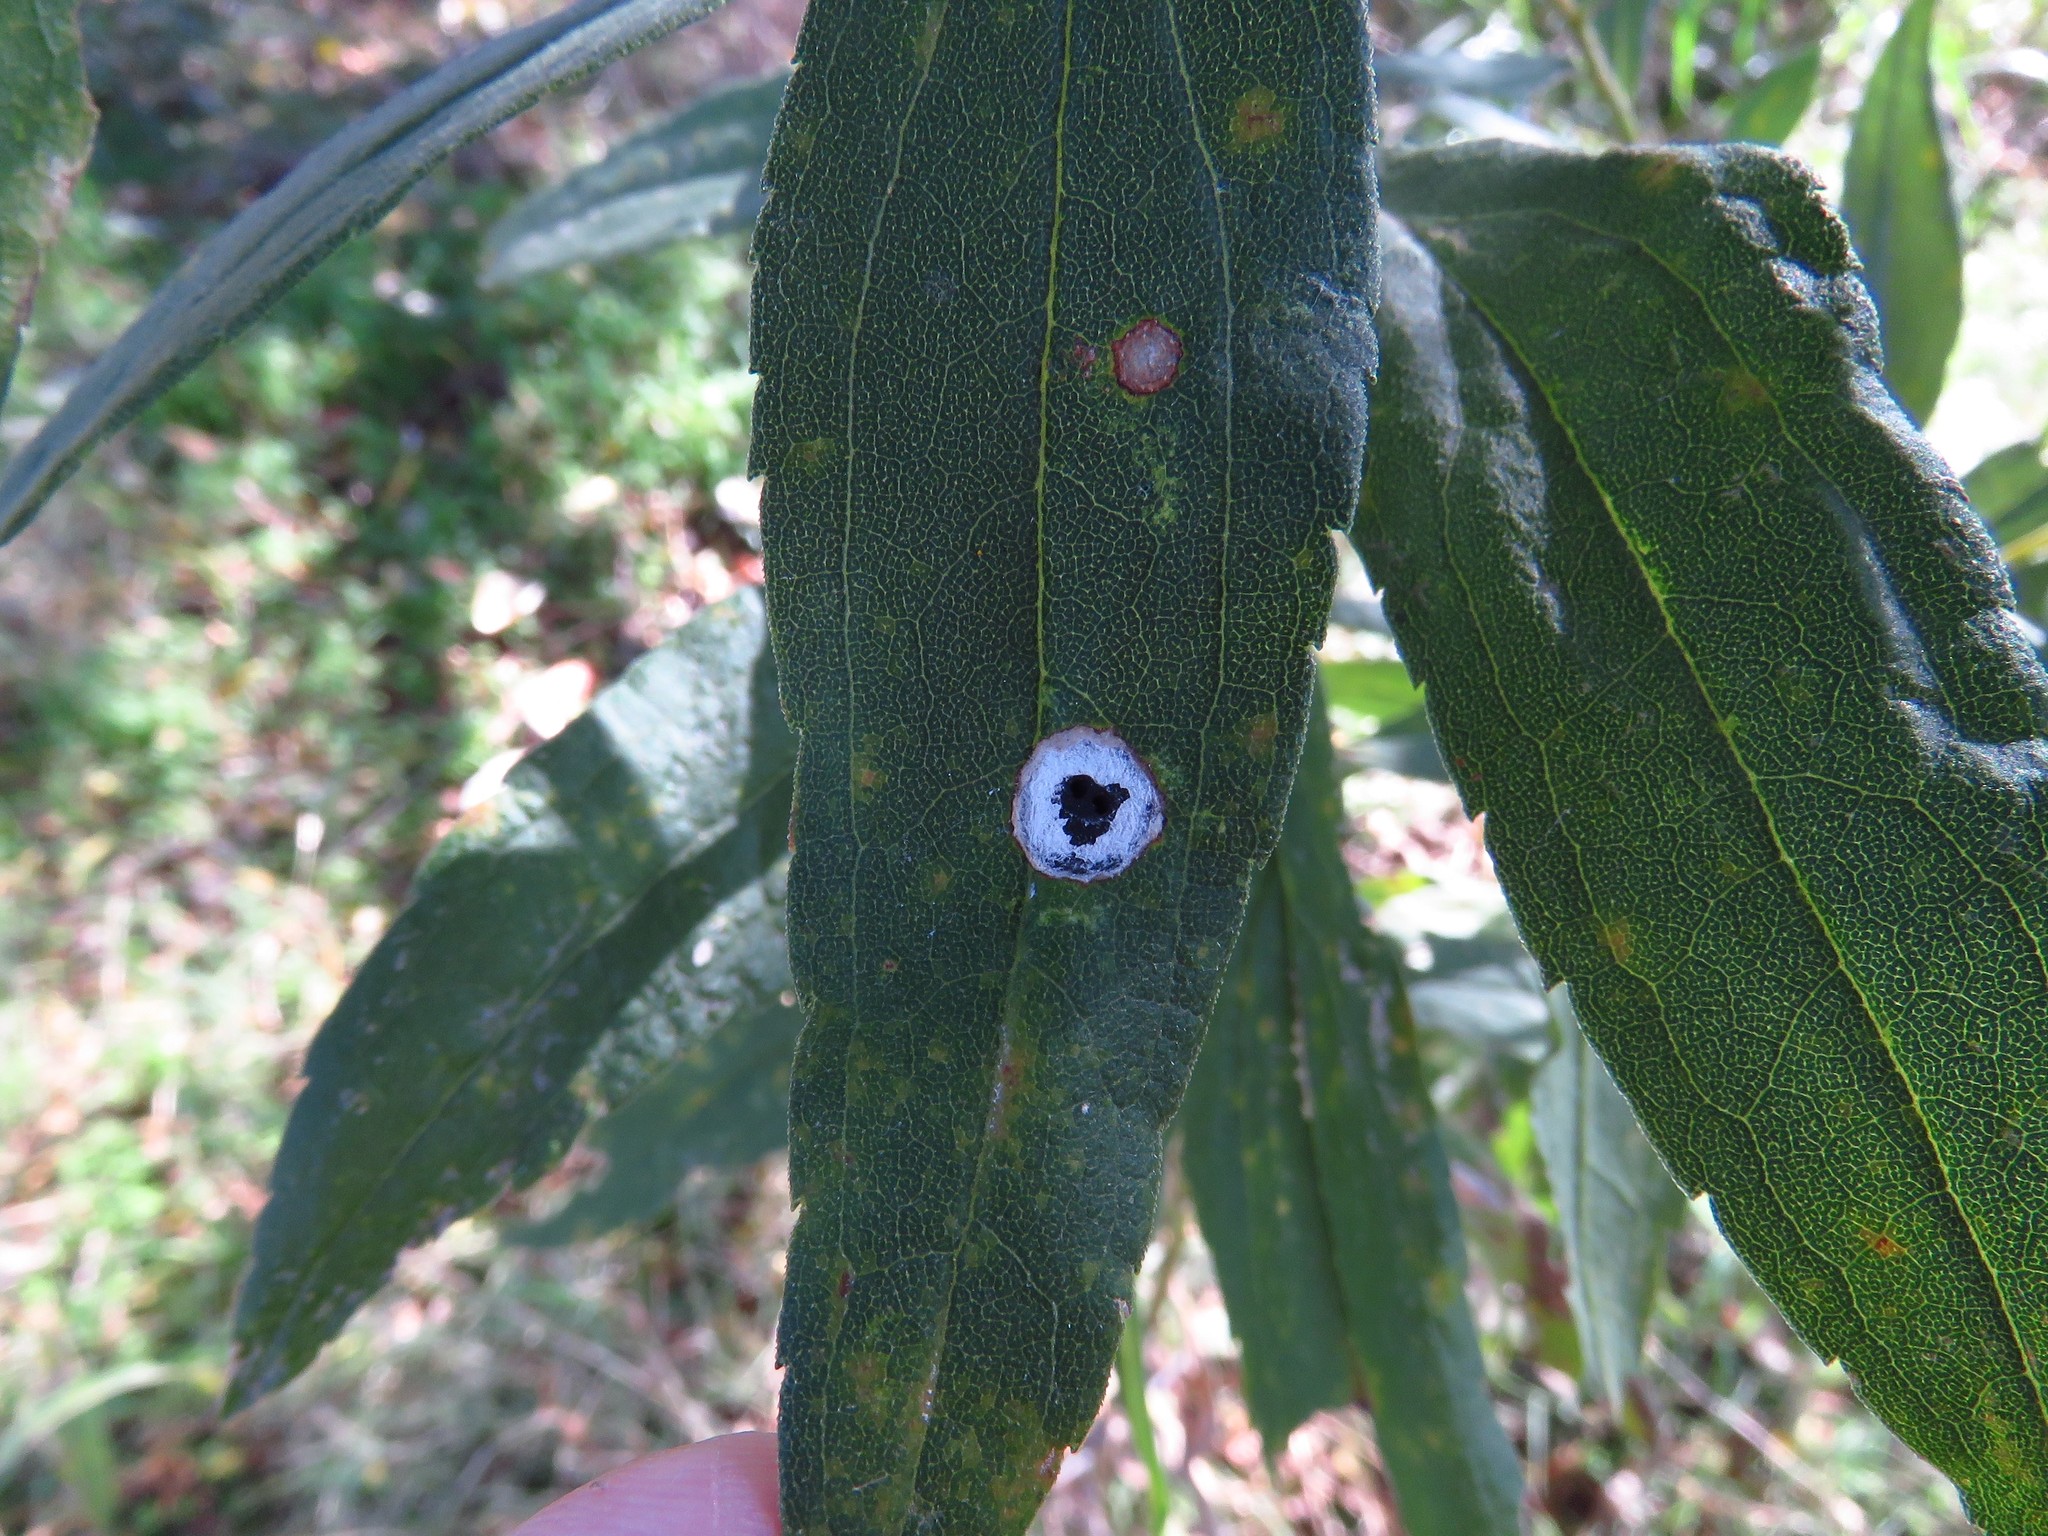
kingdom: Animalia
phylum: Arthropoda
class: Insecta
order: Diptera
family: Cecidomyiidae
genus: Asteromyia
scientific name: Asteromyia carbonifera
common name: Carbonifera goldenrod gall midge
